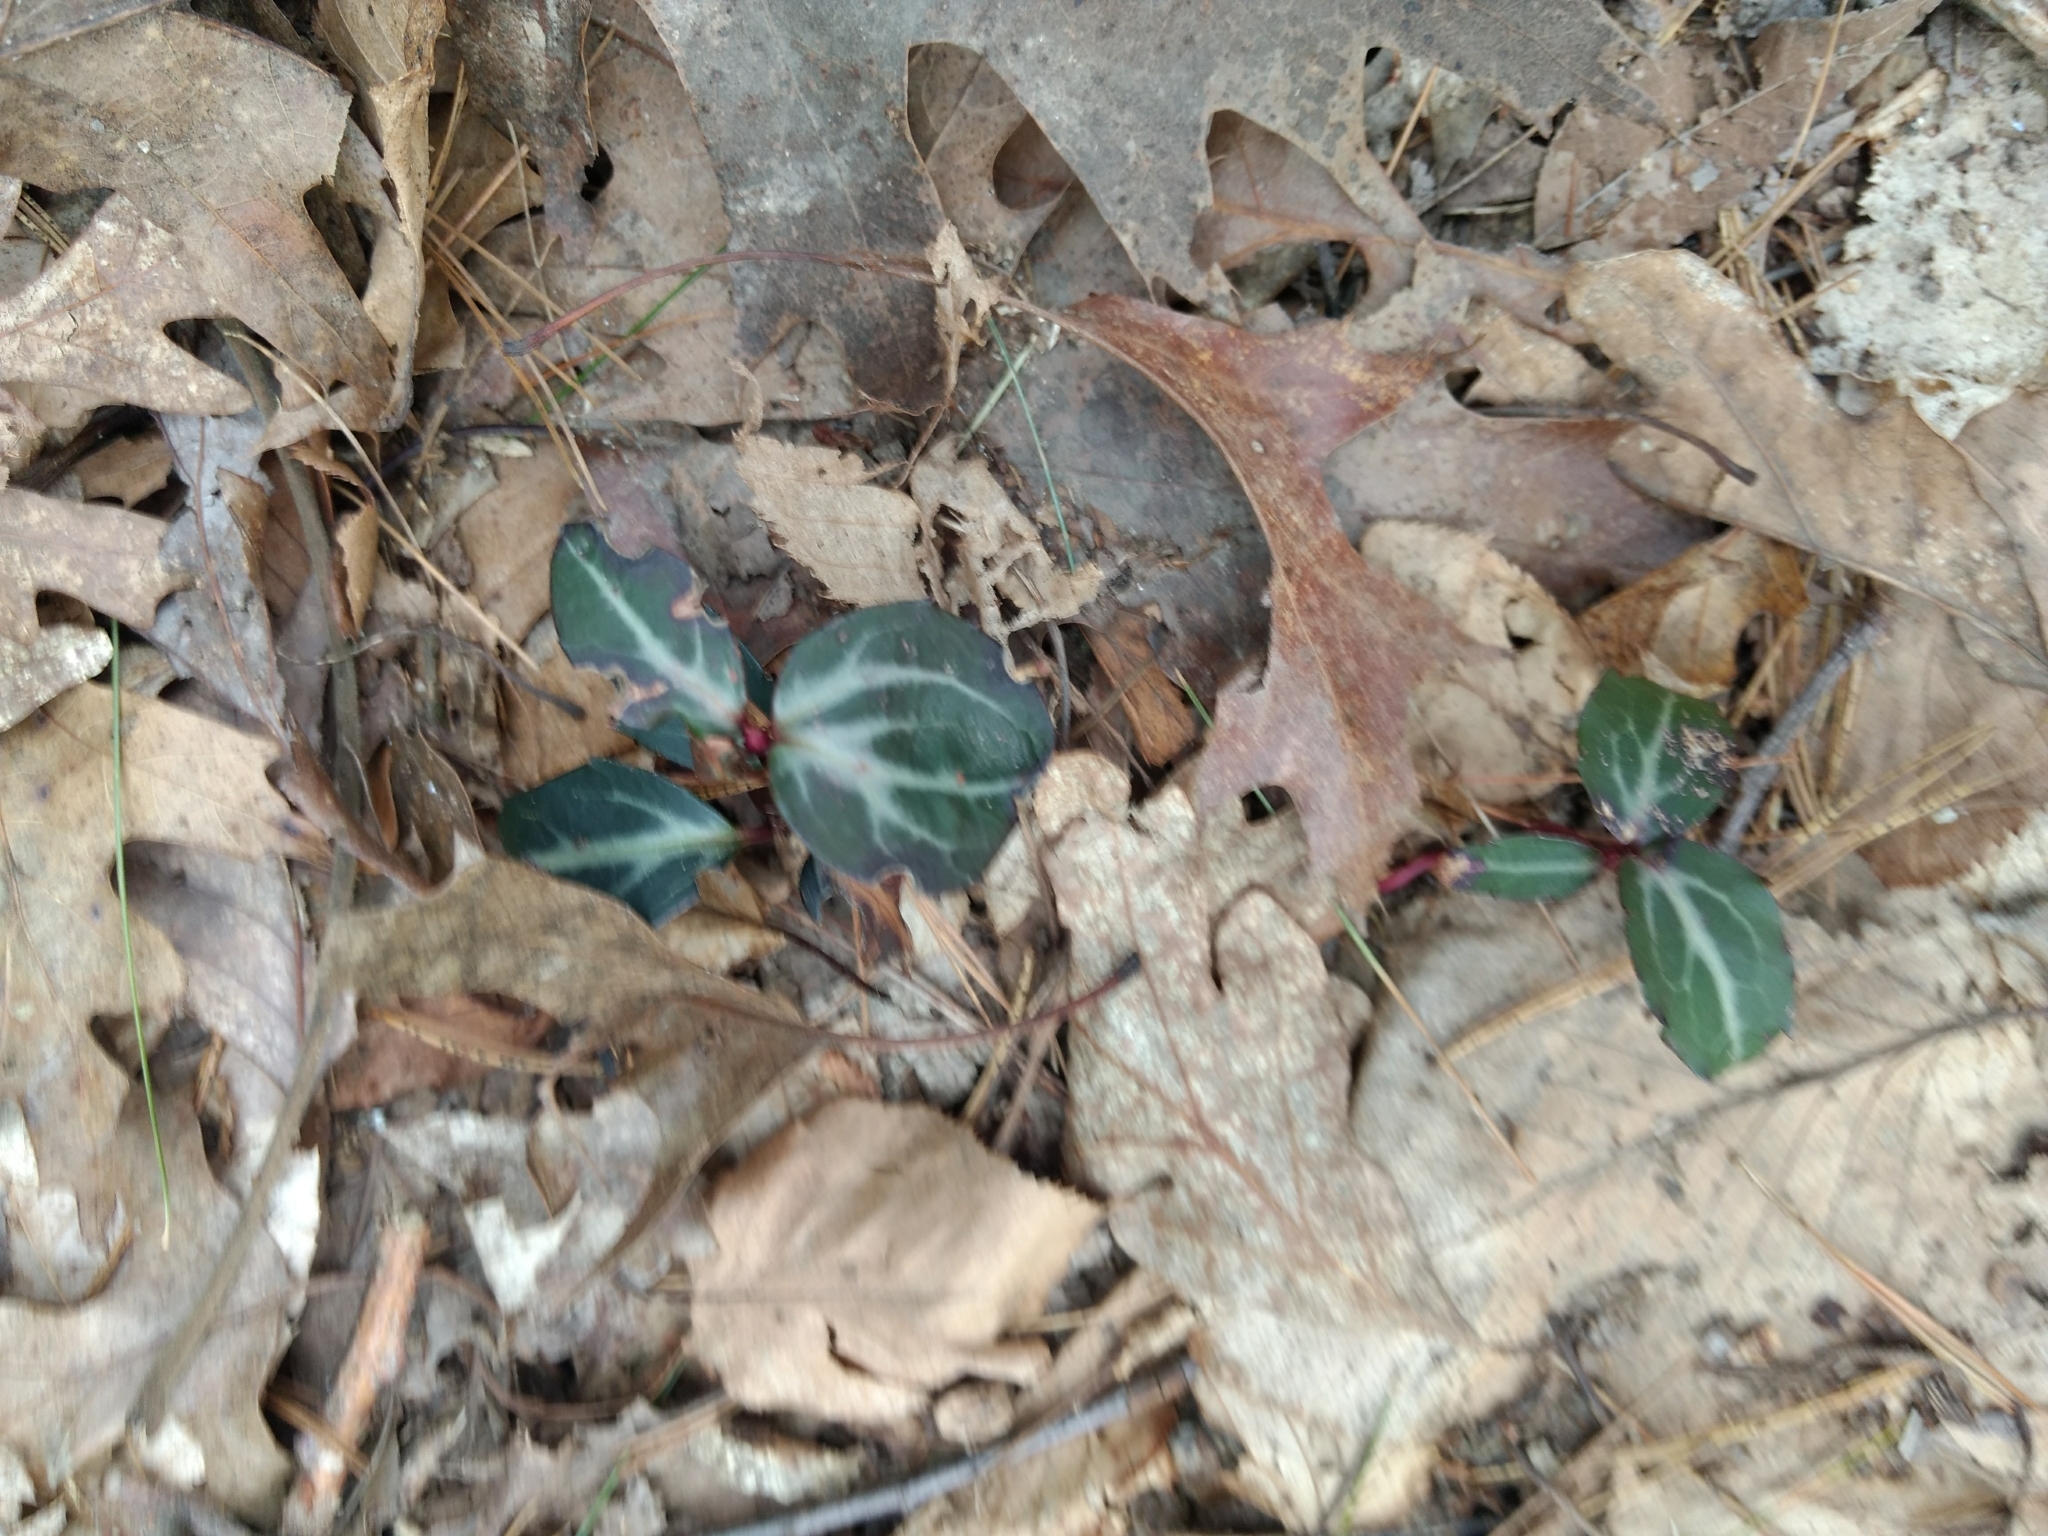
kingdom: Plantae
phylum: Tracheophyta
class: Magnoliopsida
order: Ericales
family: Ericaceae
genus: Chimaphila
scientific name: Chimaphila maculata
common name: Spotted pipsissewa
